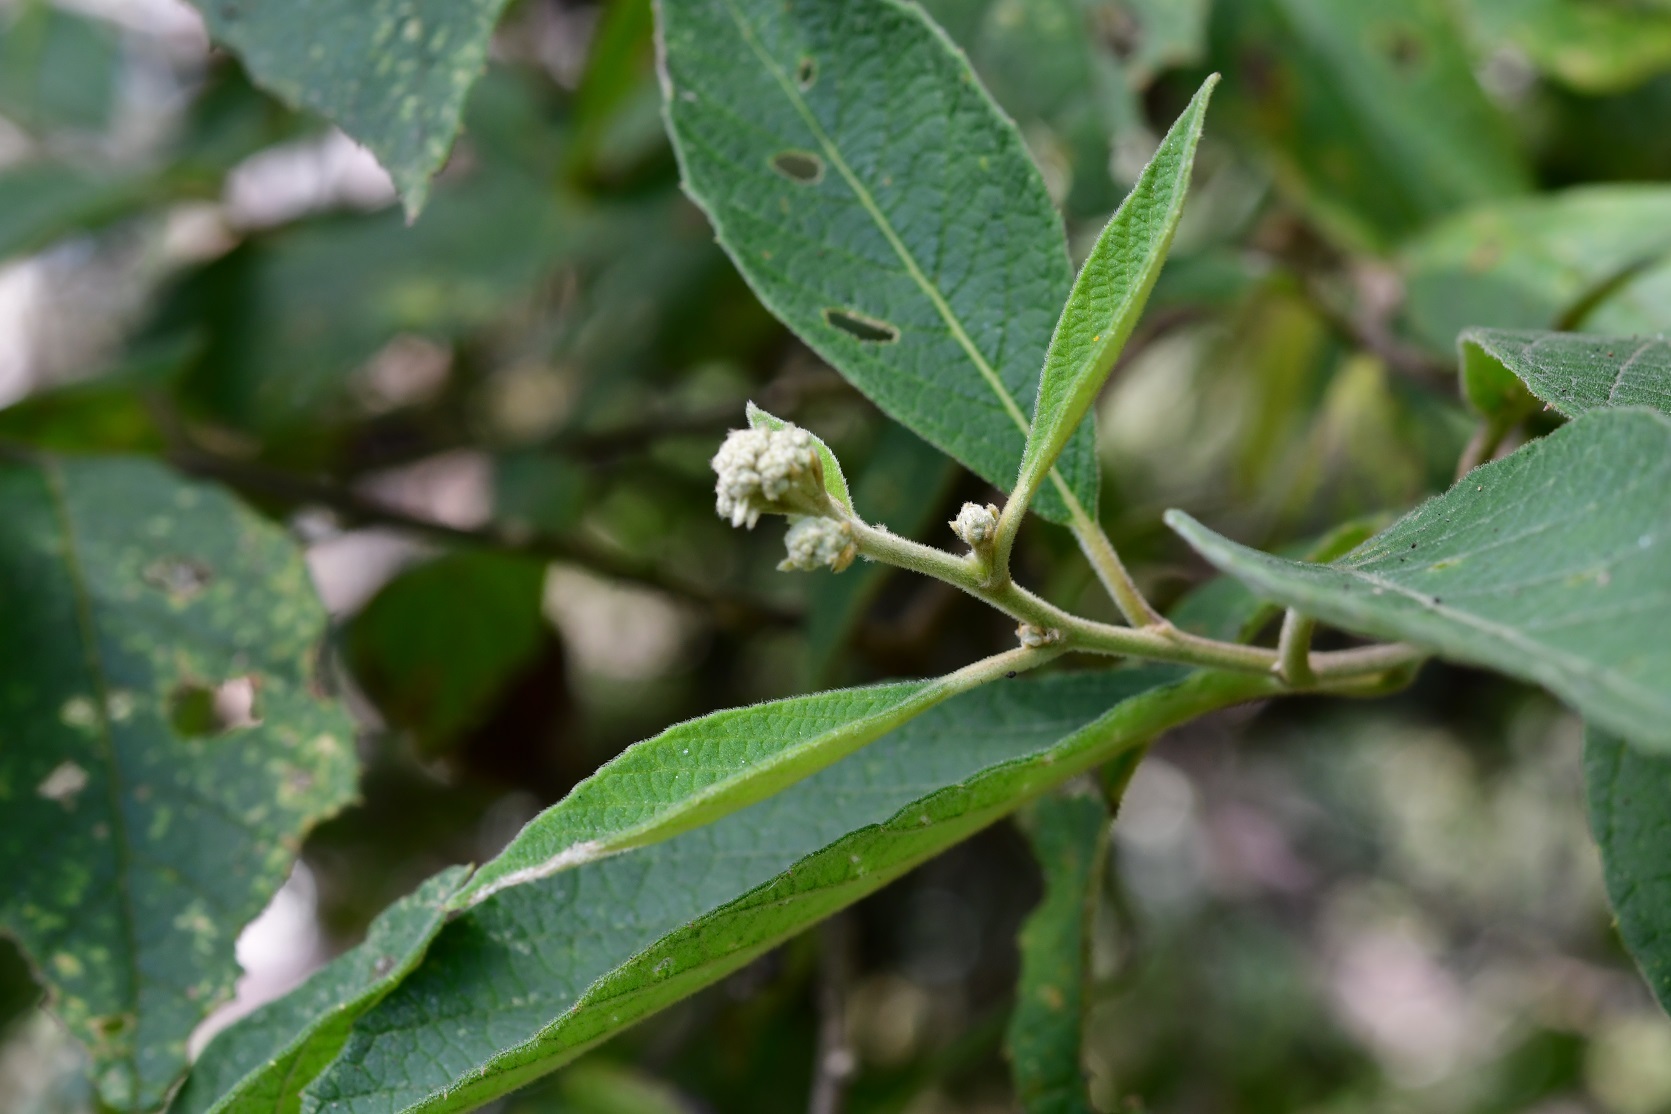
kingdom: Plantae
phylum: Tracheophyta
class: Magnoliopsida
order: Asterales
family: Asteraceae
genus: Eremosis
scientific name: Eremosis leiocarpa
